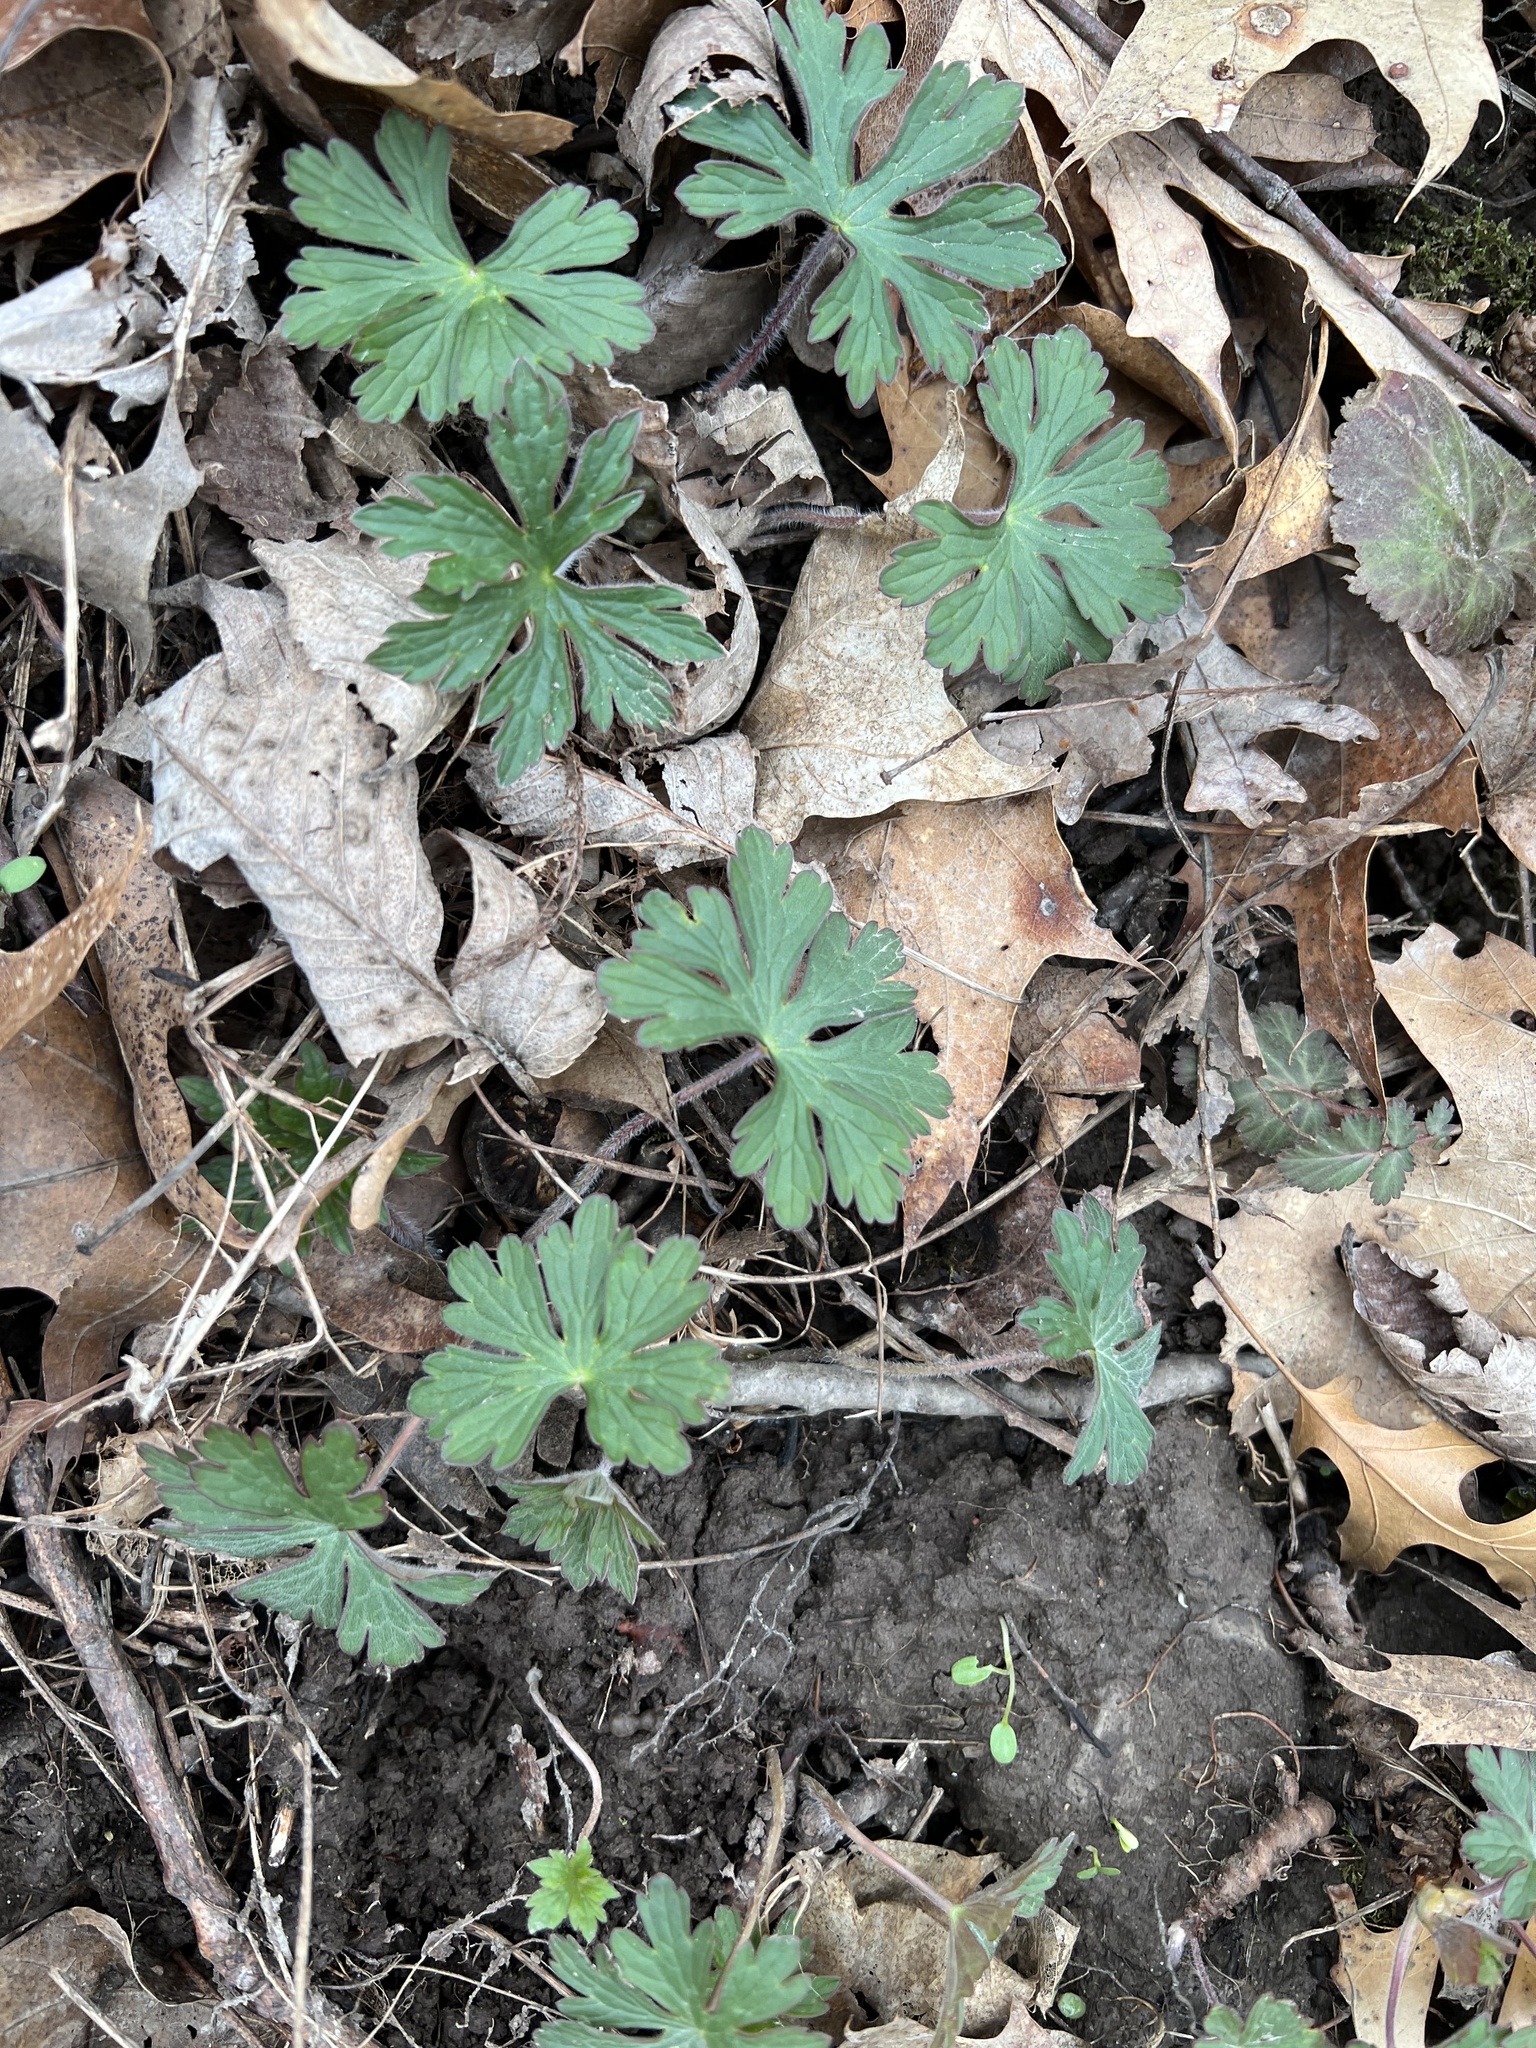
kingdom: Plantae
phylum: Tracheophyta
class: Magnoliopsida
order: Geraniales
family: Geraniaceae
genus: Geranium
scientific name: Geranium maculatum
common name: Spotted geranium
